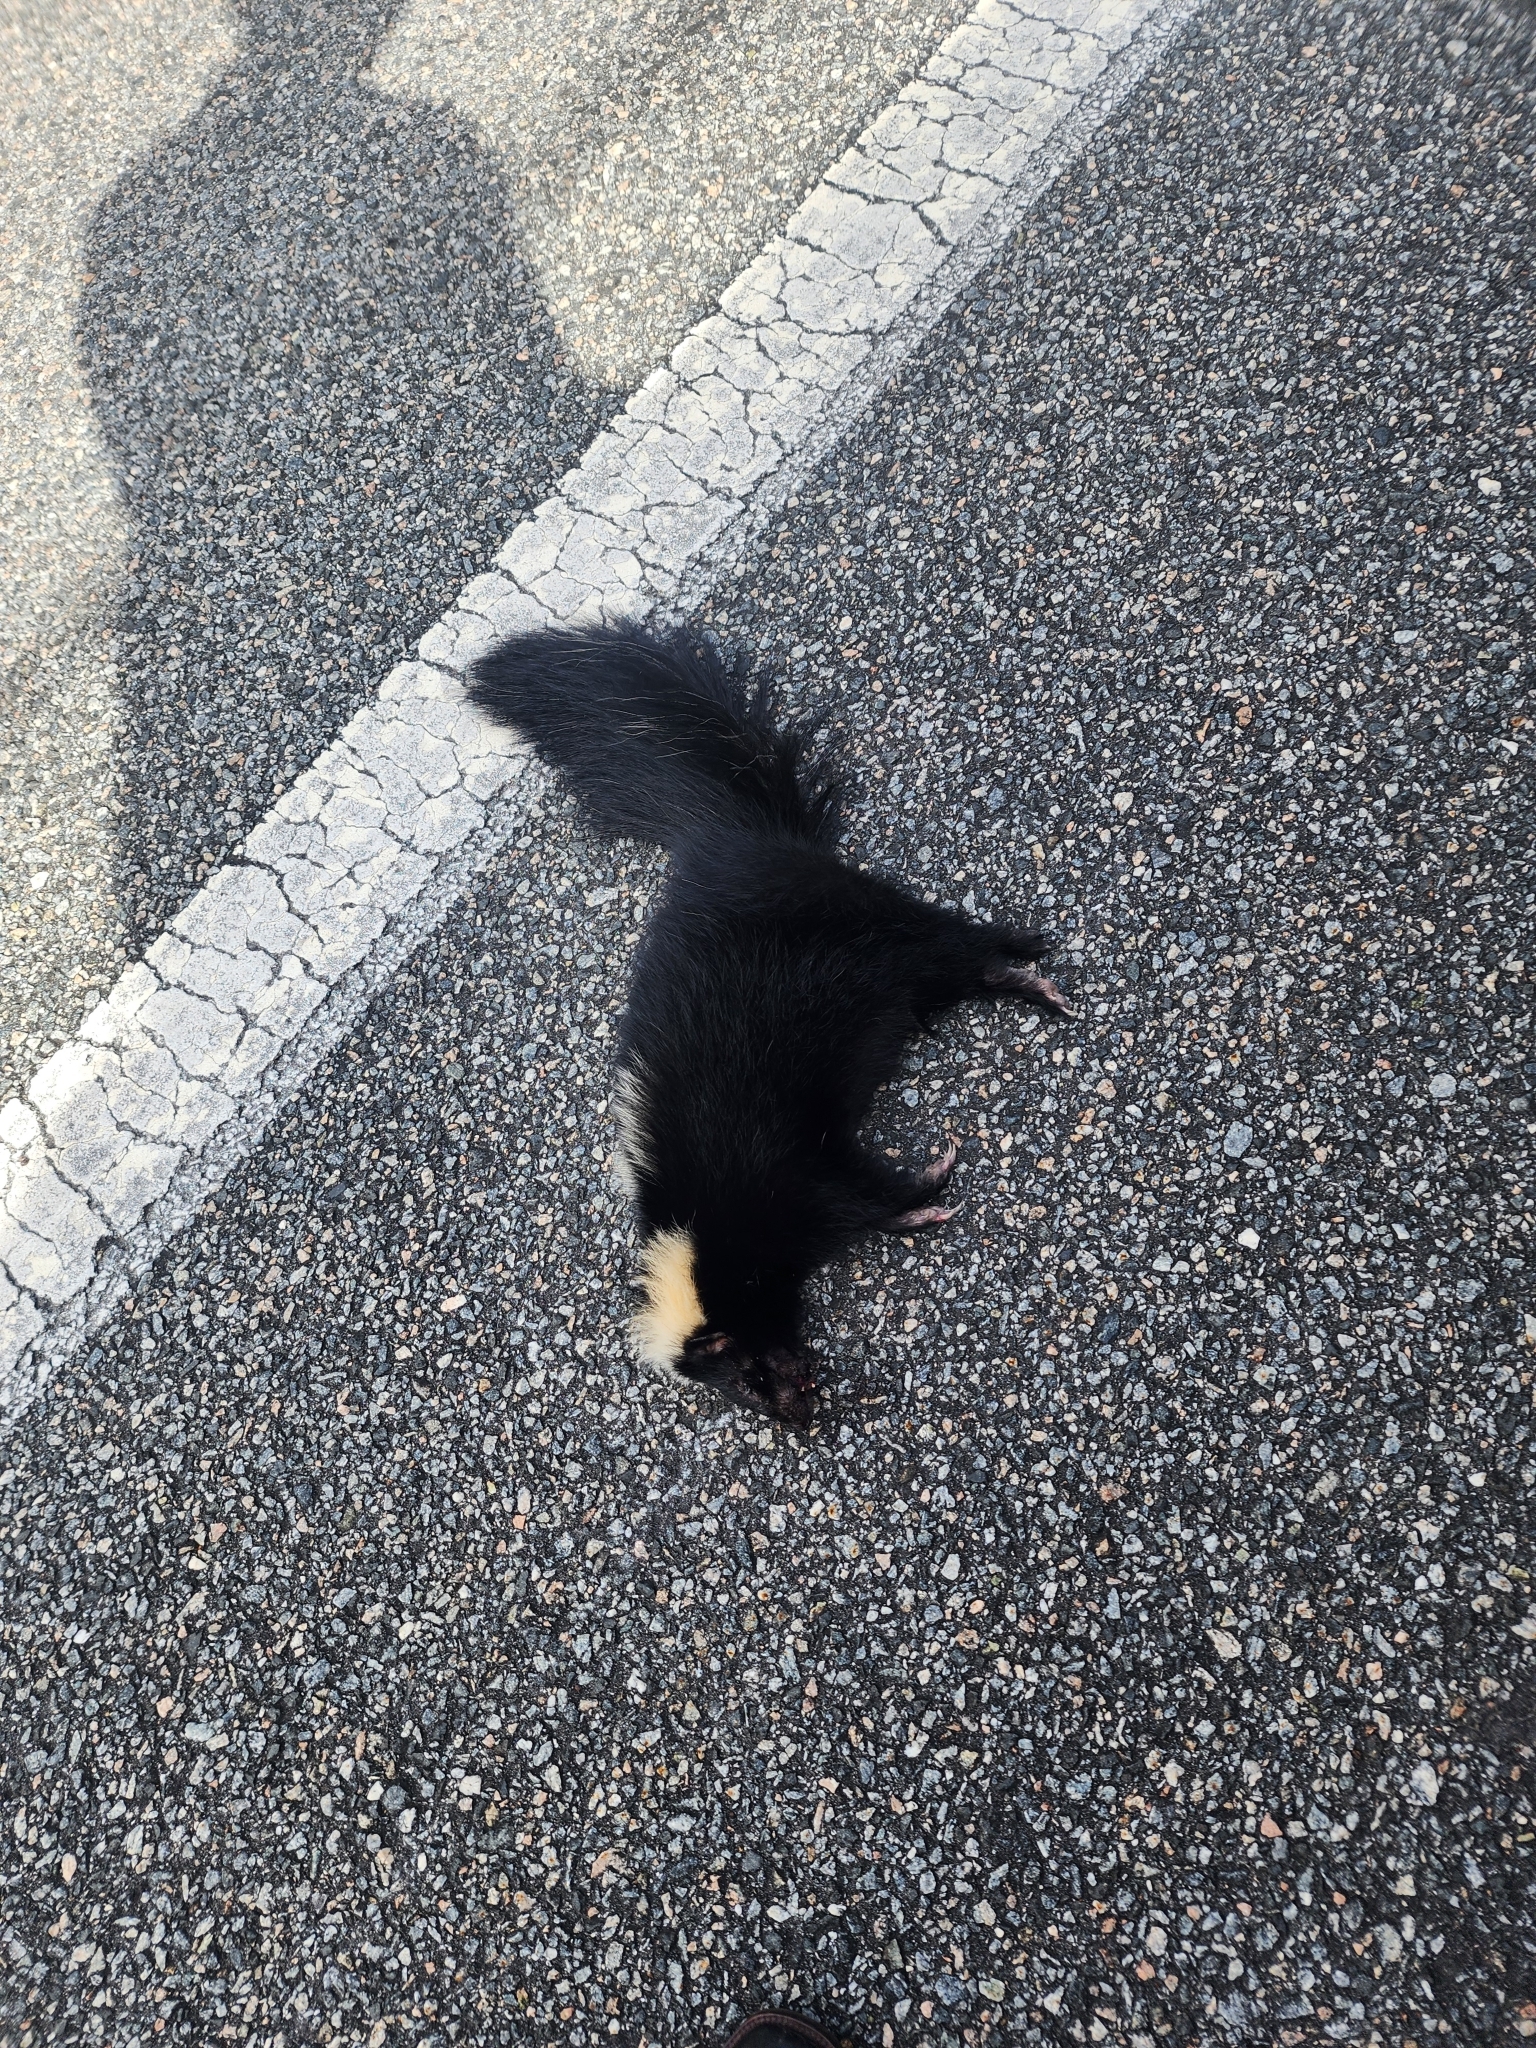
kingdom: Animalia
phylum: Chordata
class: Mammalia
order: Carnivora
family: Mephitidae
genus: Mephitis
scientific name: Mephitis mephitis
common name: Striped skunk
